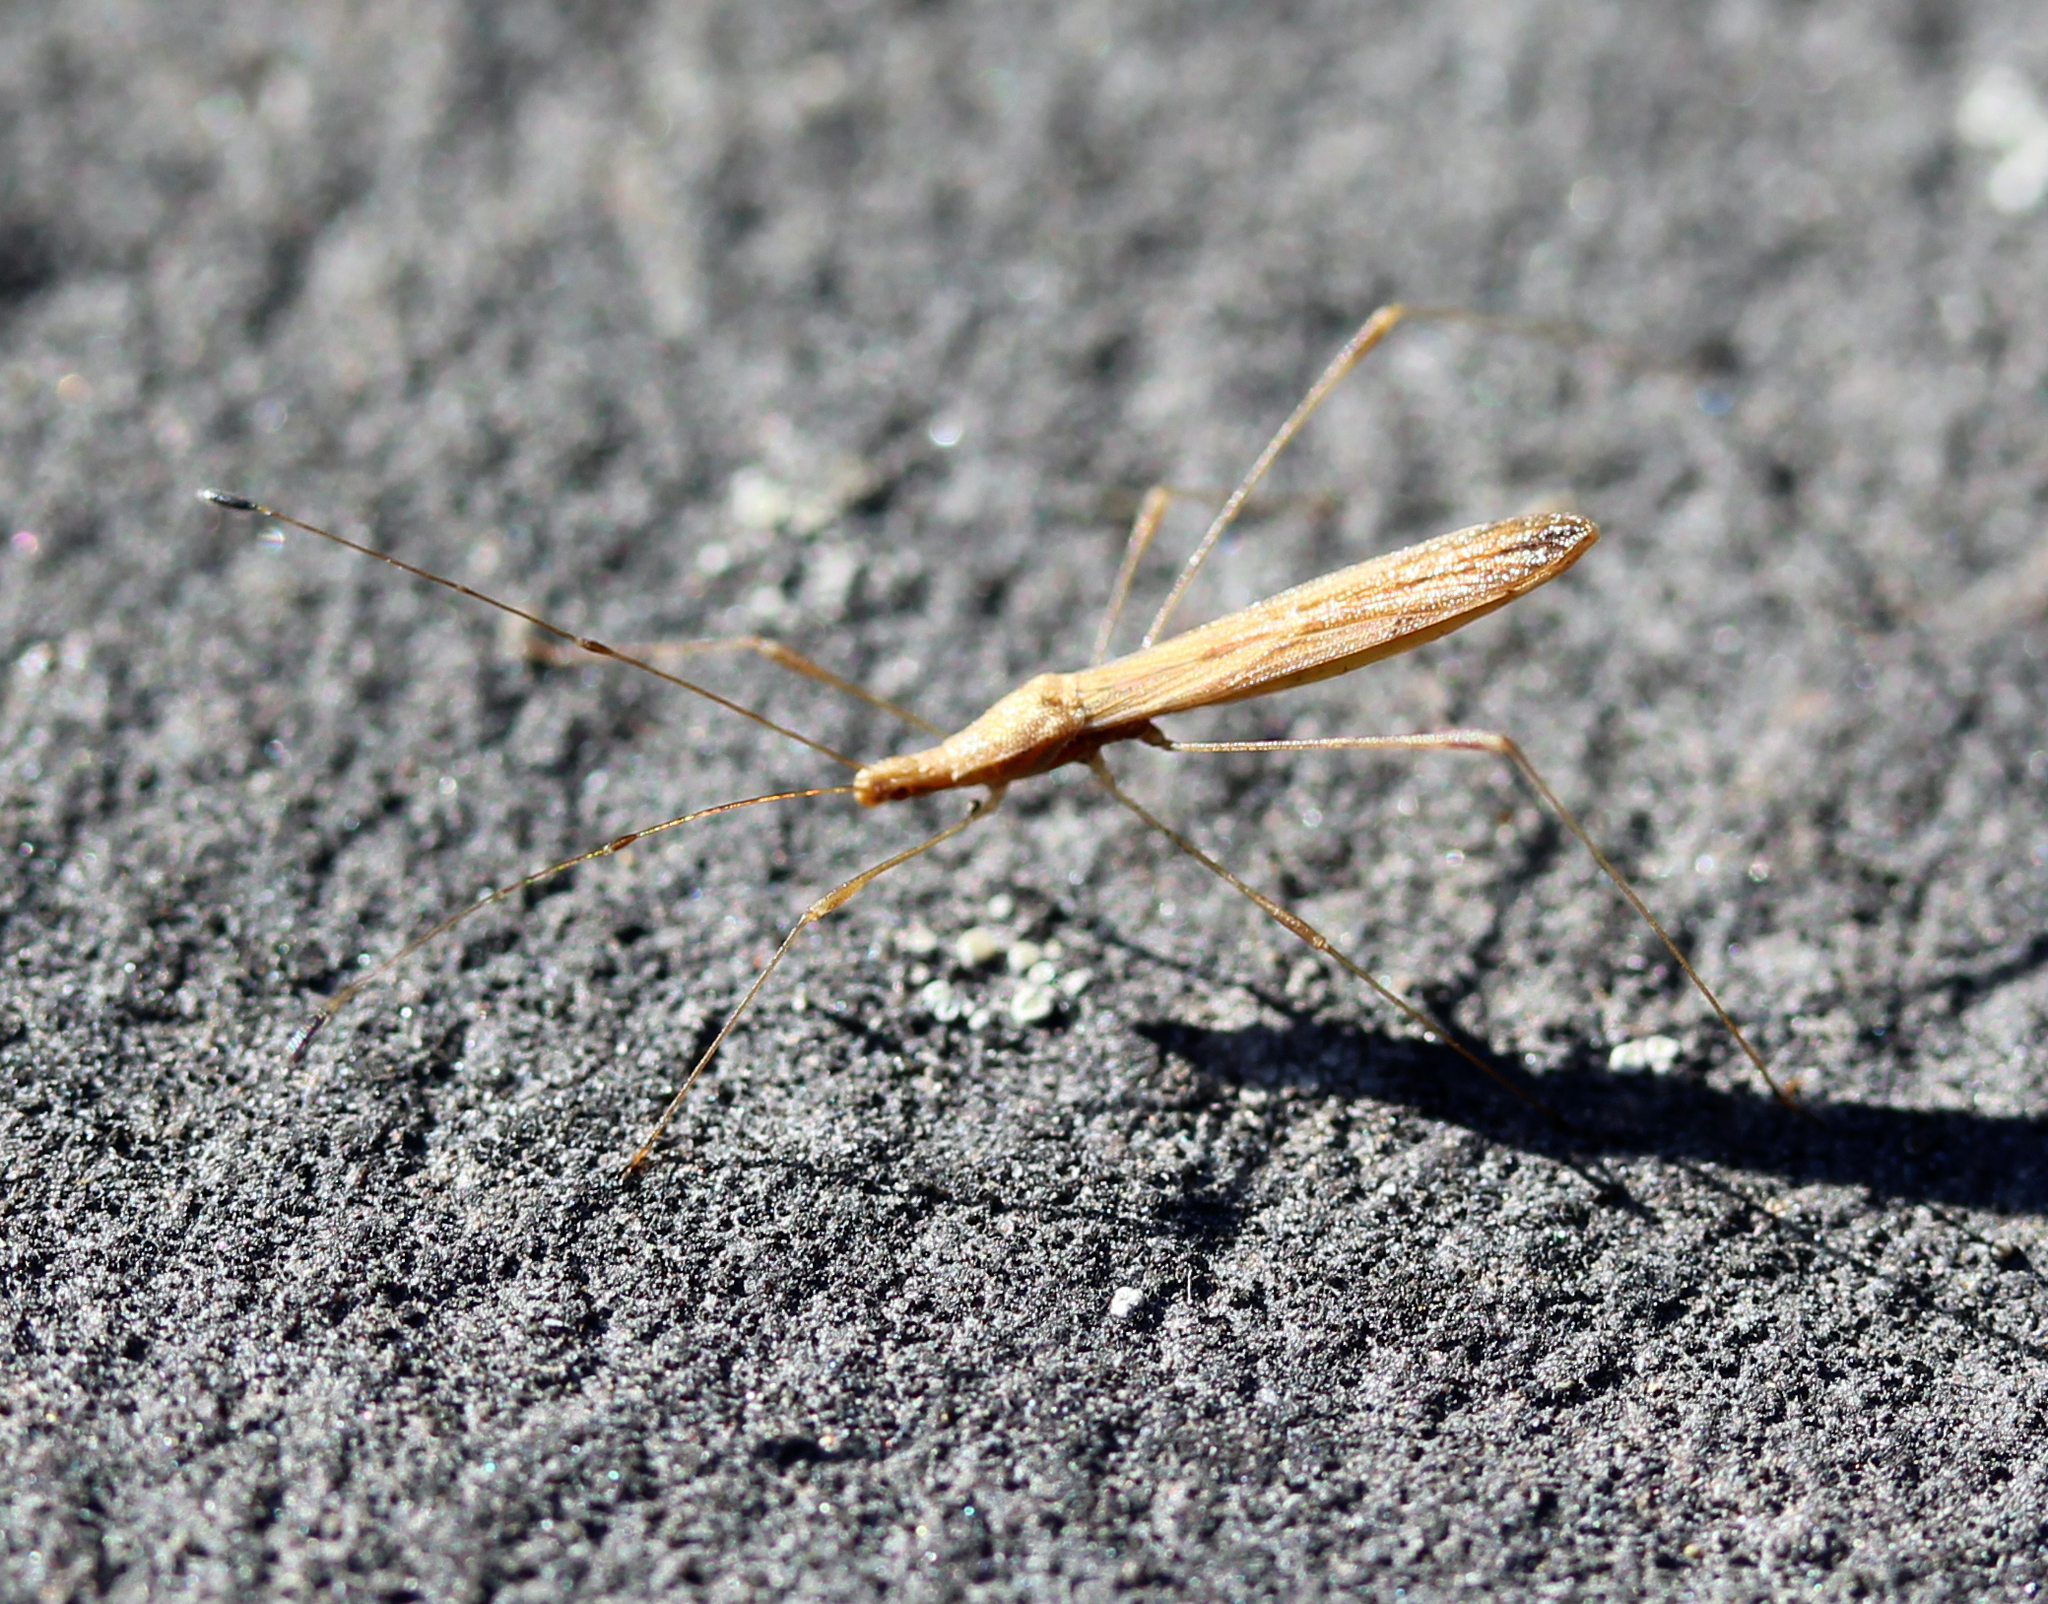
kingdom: Animalia
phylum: Arthropoda
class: Insecta
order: Hemiptera
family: Berytidae
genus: Neoneides
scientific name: Neoneides muticus
